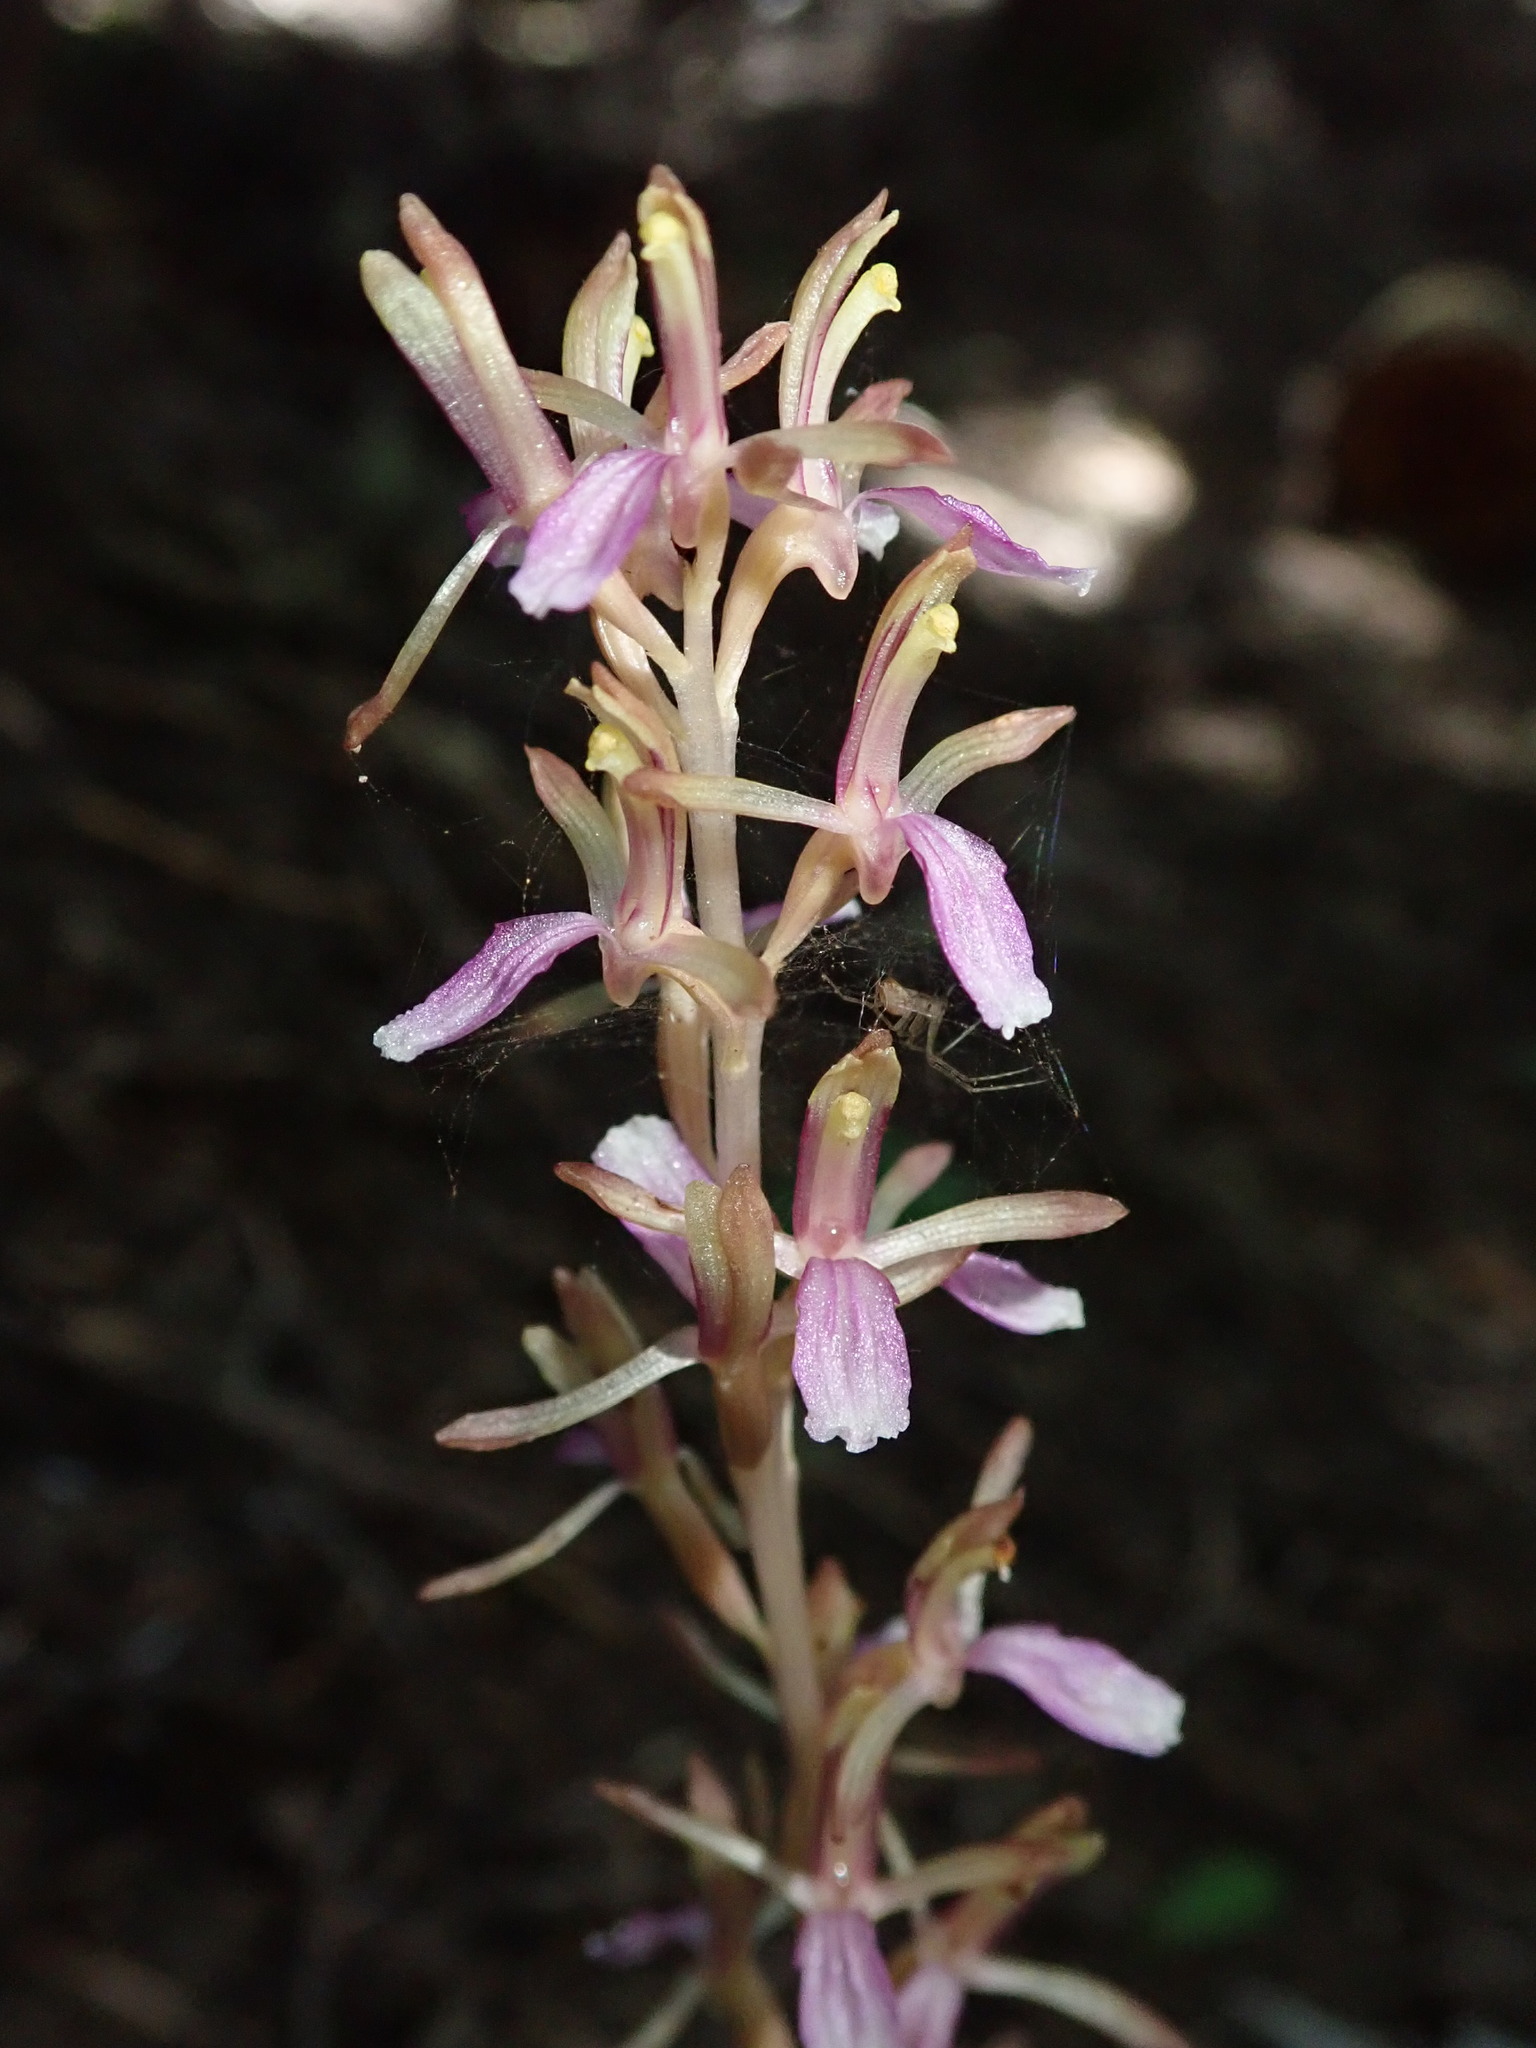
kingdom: Plantae
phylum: Tracheophyta
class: Liliopsida
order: Asparagales
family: Orchidaceae
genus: Corallorhiza
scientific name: Corallorhiza mertensiana
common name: Pacific coralroot
